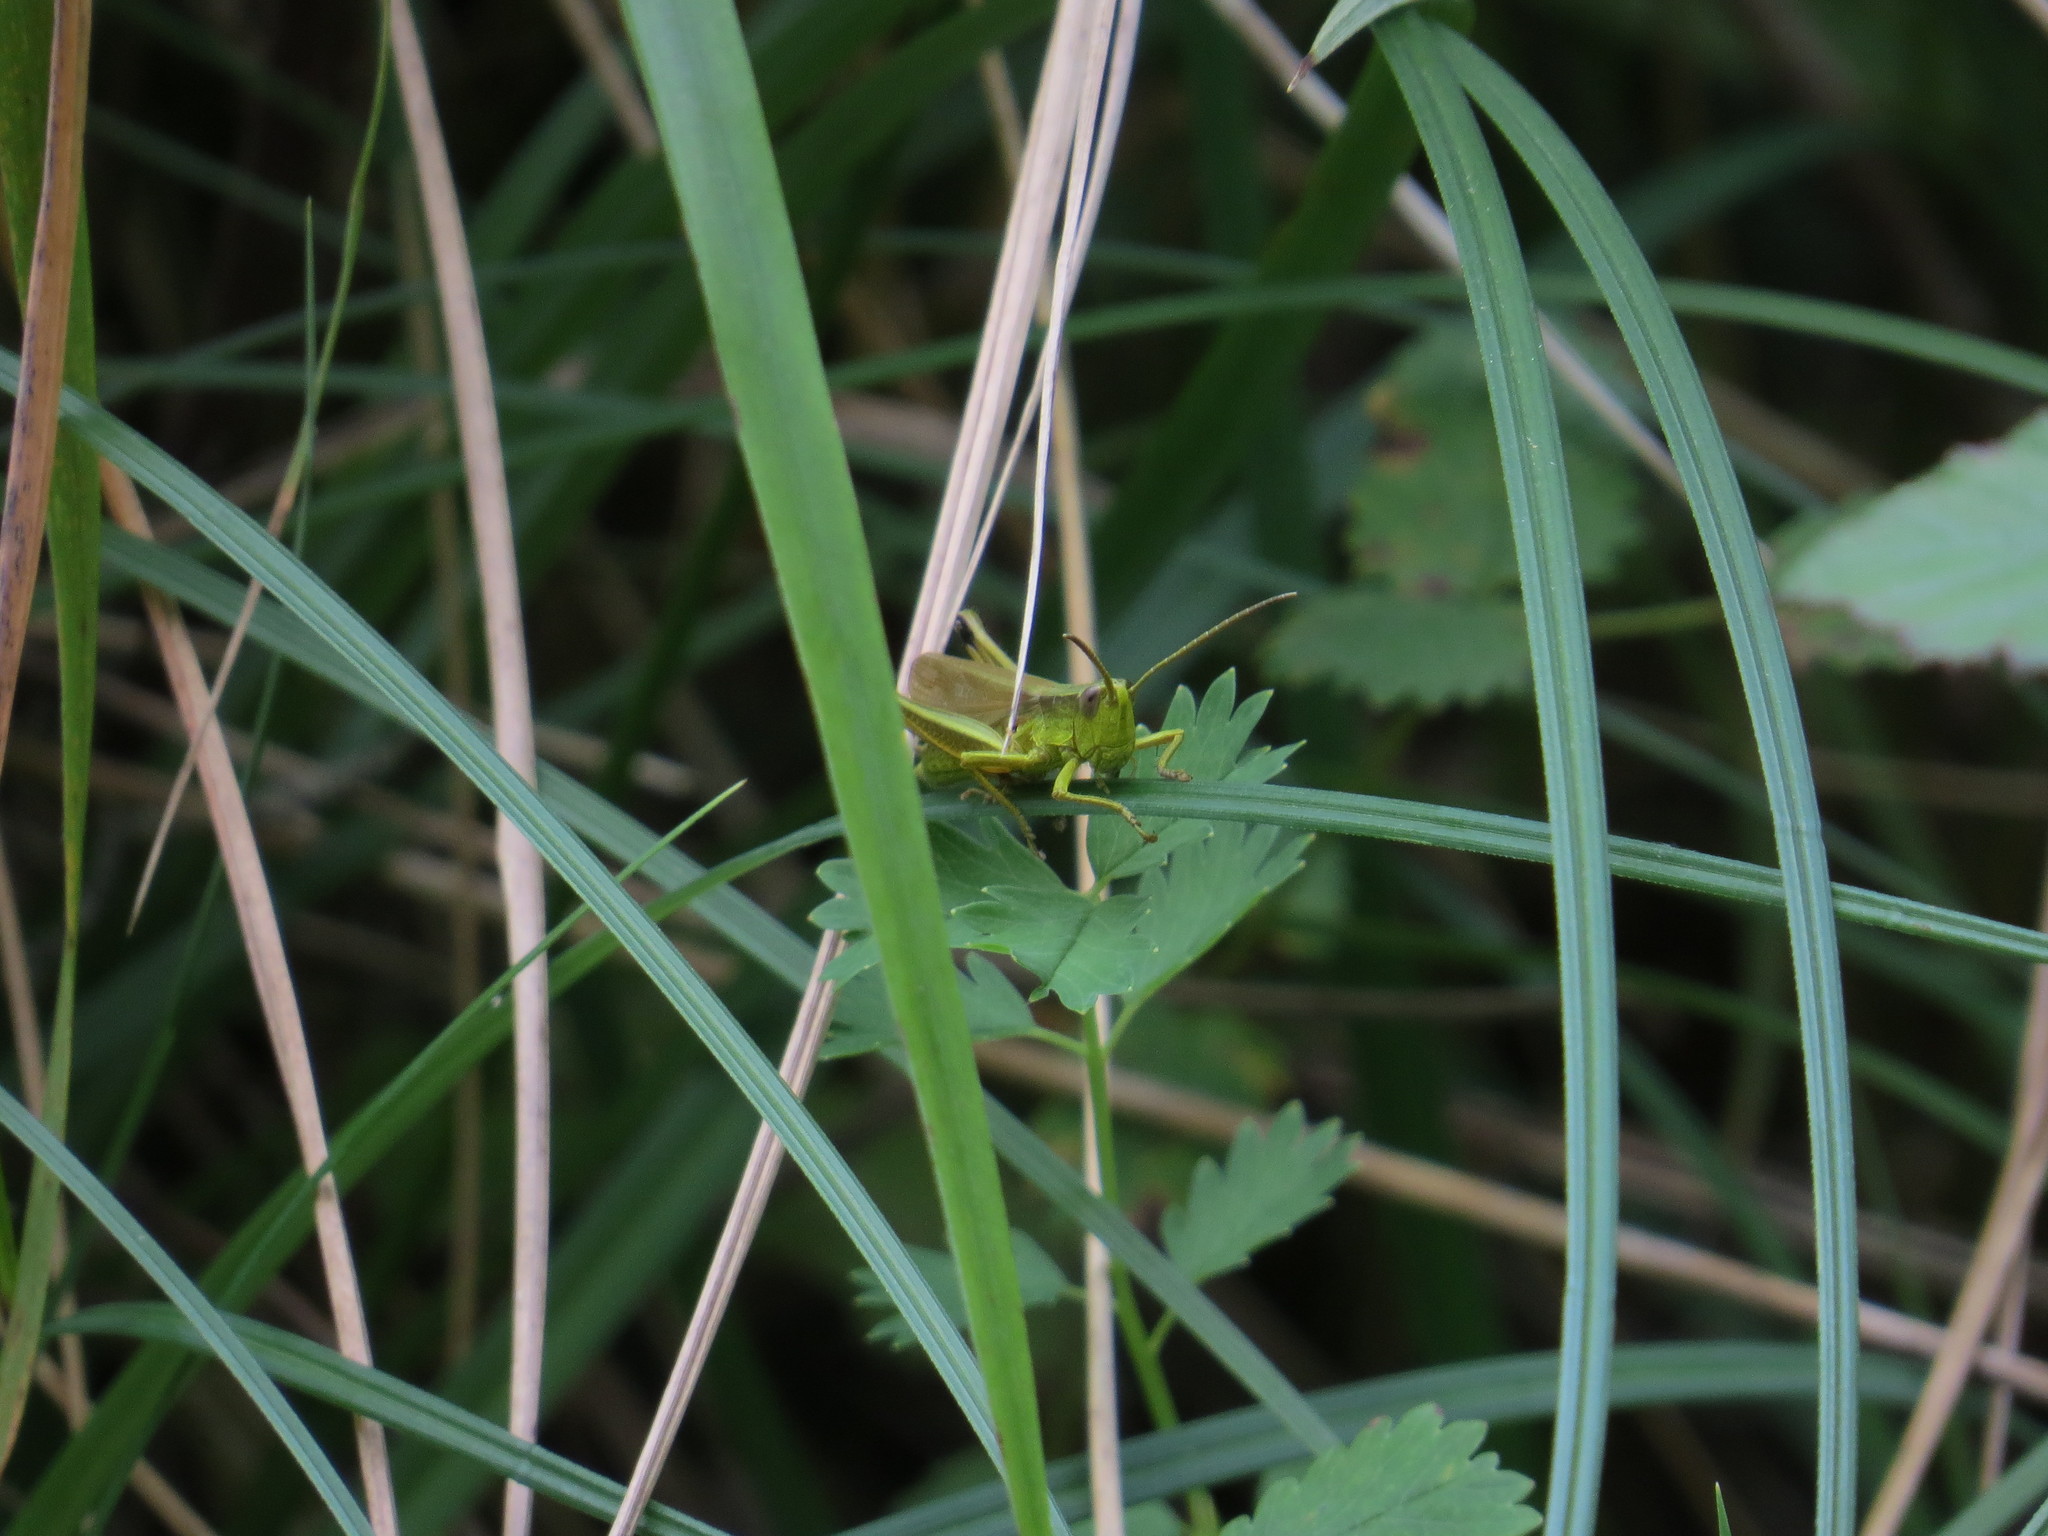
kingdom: Animalia
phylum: Arthropoda
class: Insecta
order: Orthoptera
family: Acrididae
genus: Chrysochraon
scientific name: Chrysochraon dispar
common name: Large gold grasshopper
